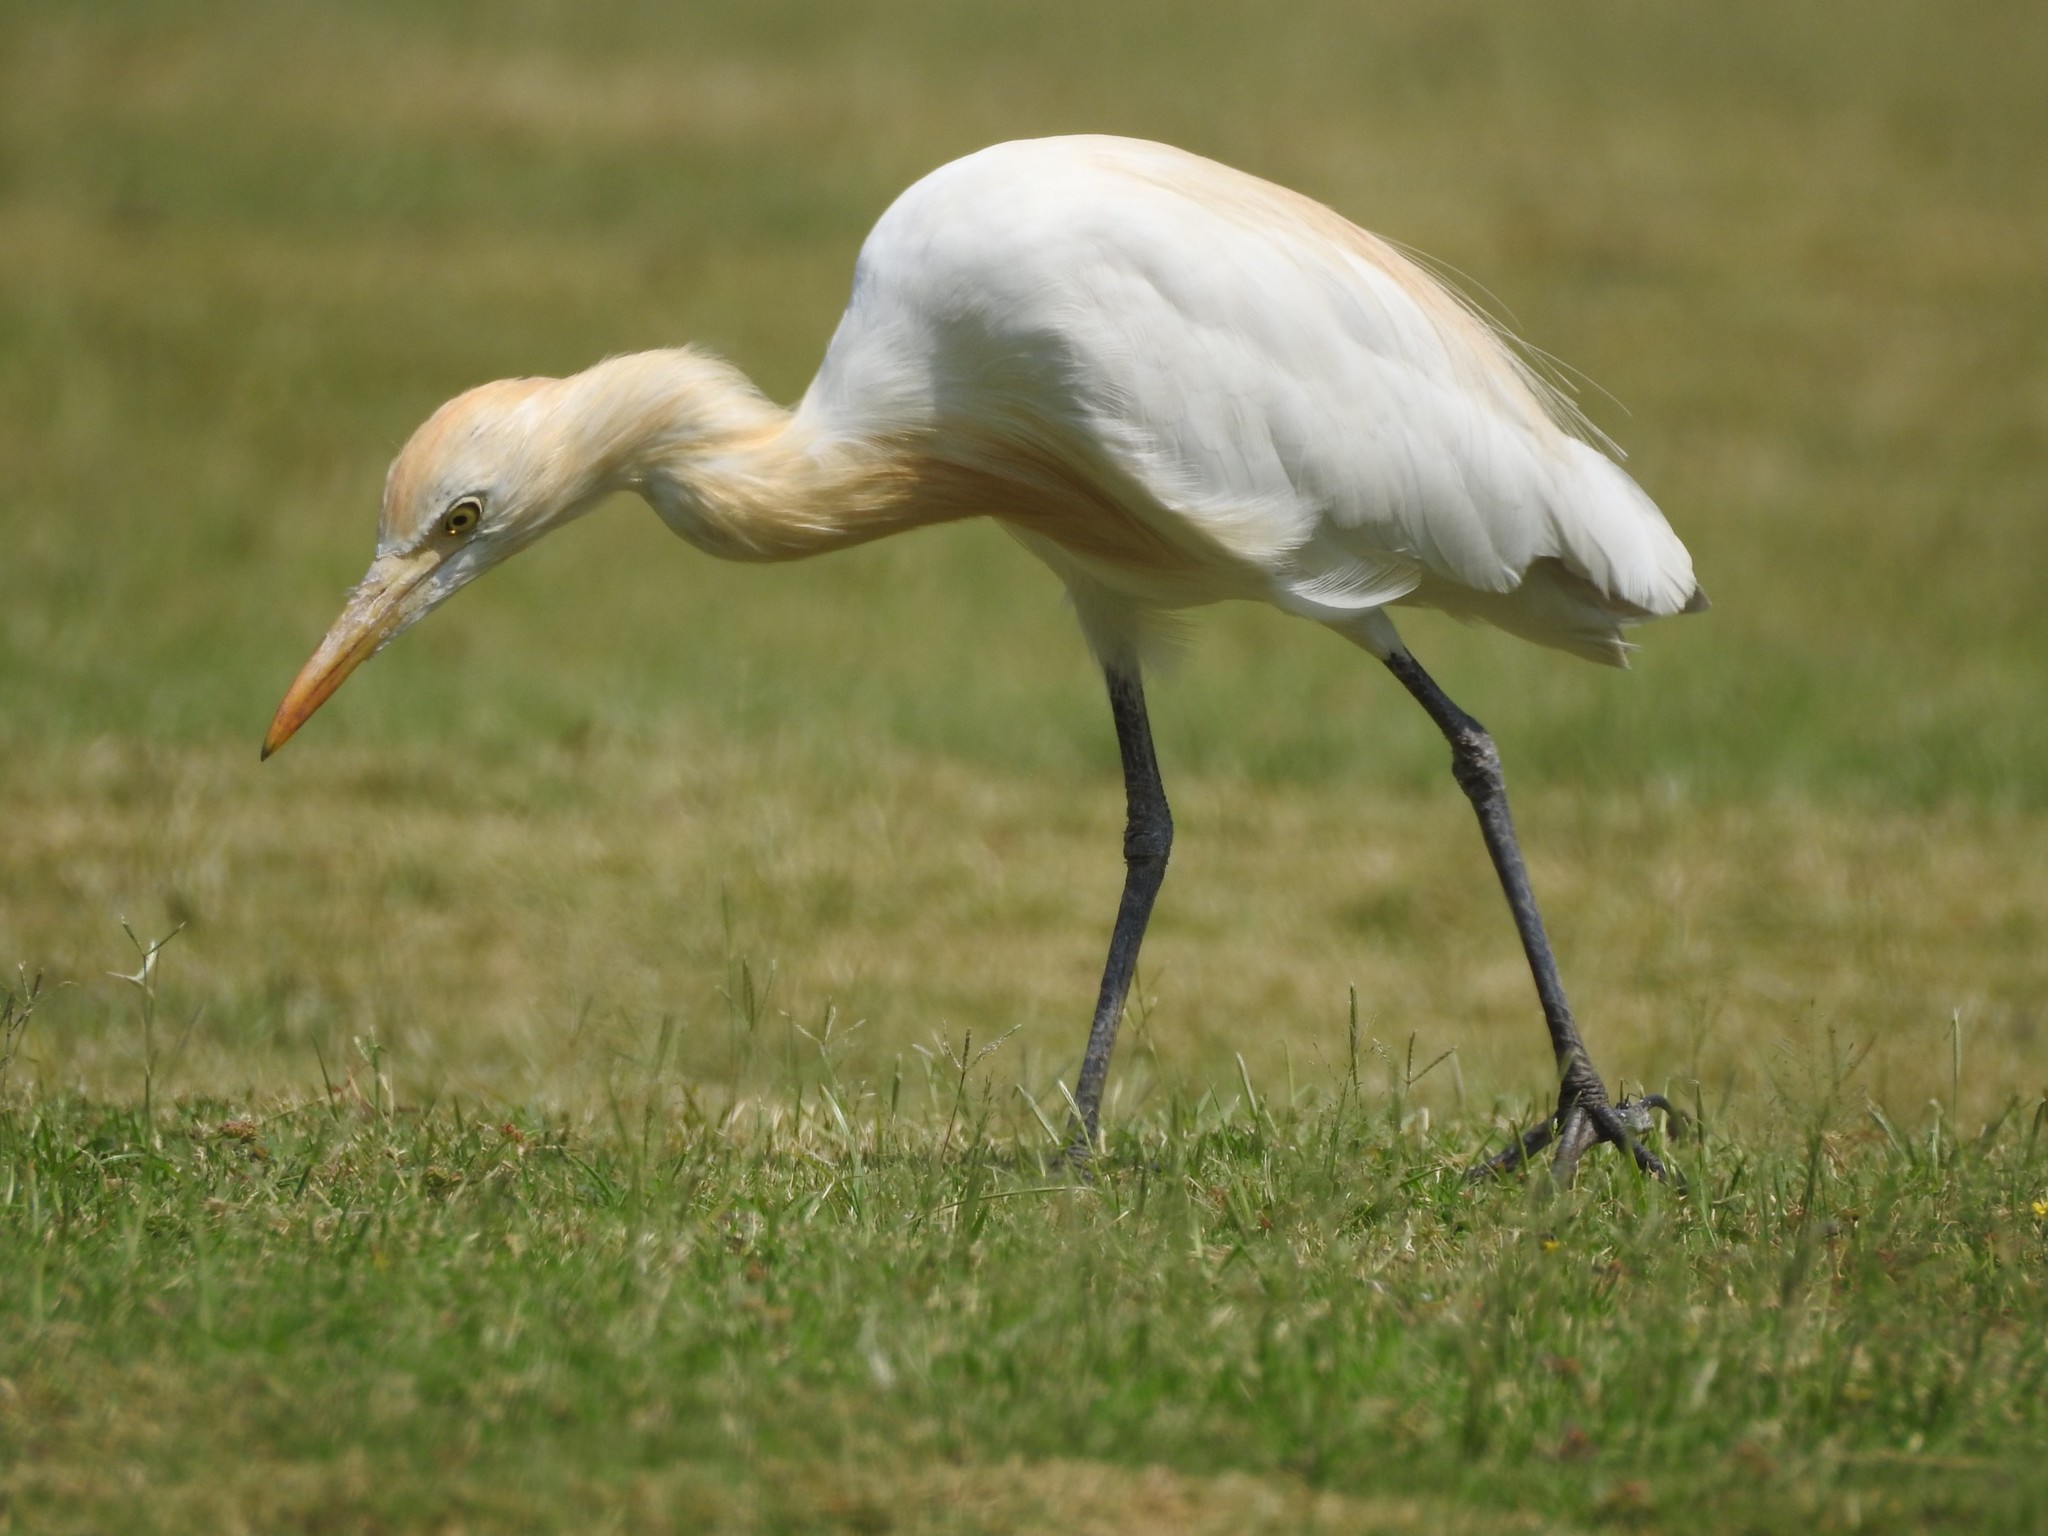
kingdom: Animalia
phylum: Chordata
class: Aves
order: Pelecaniformes
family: Ardeidae
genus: Bubulcus
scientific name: Bubulcus coromandus
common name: Eastern cattle egret
